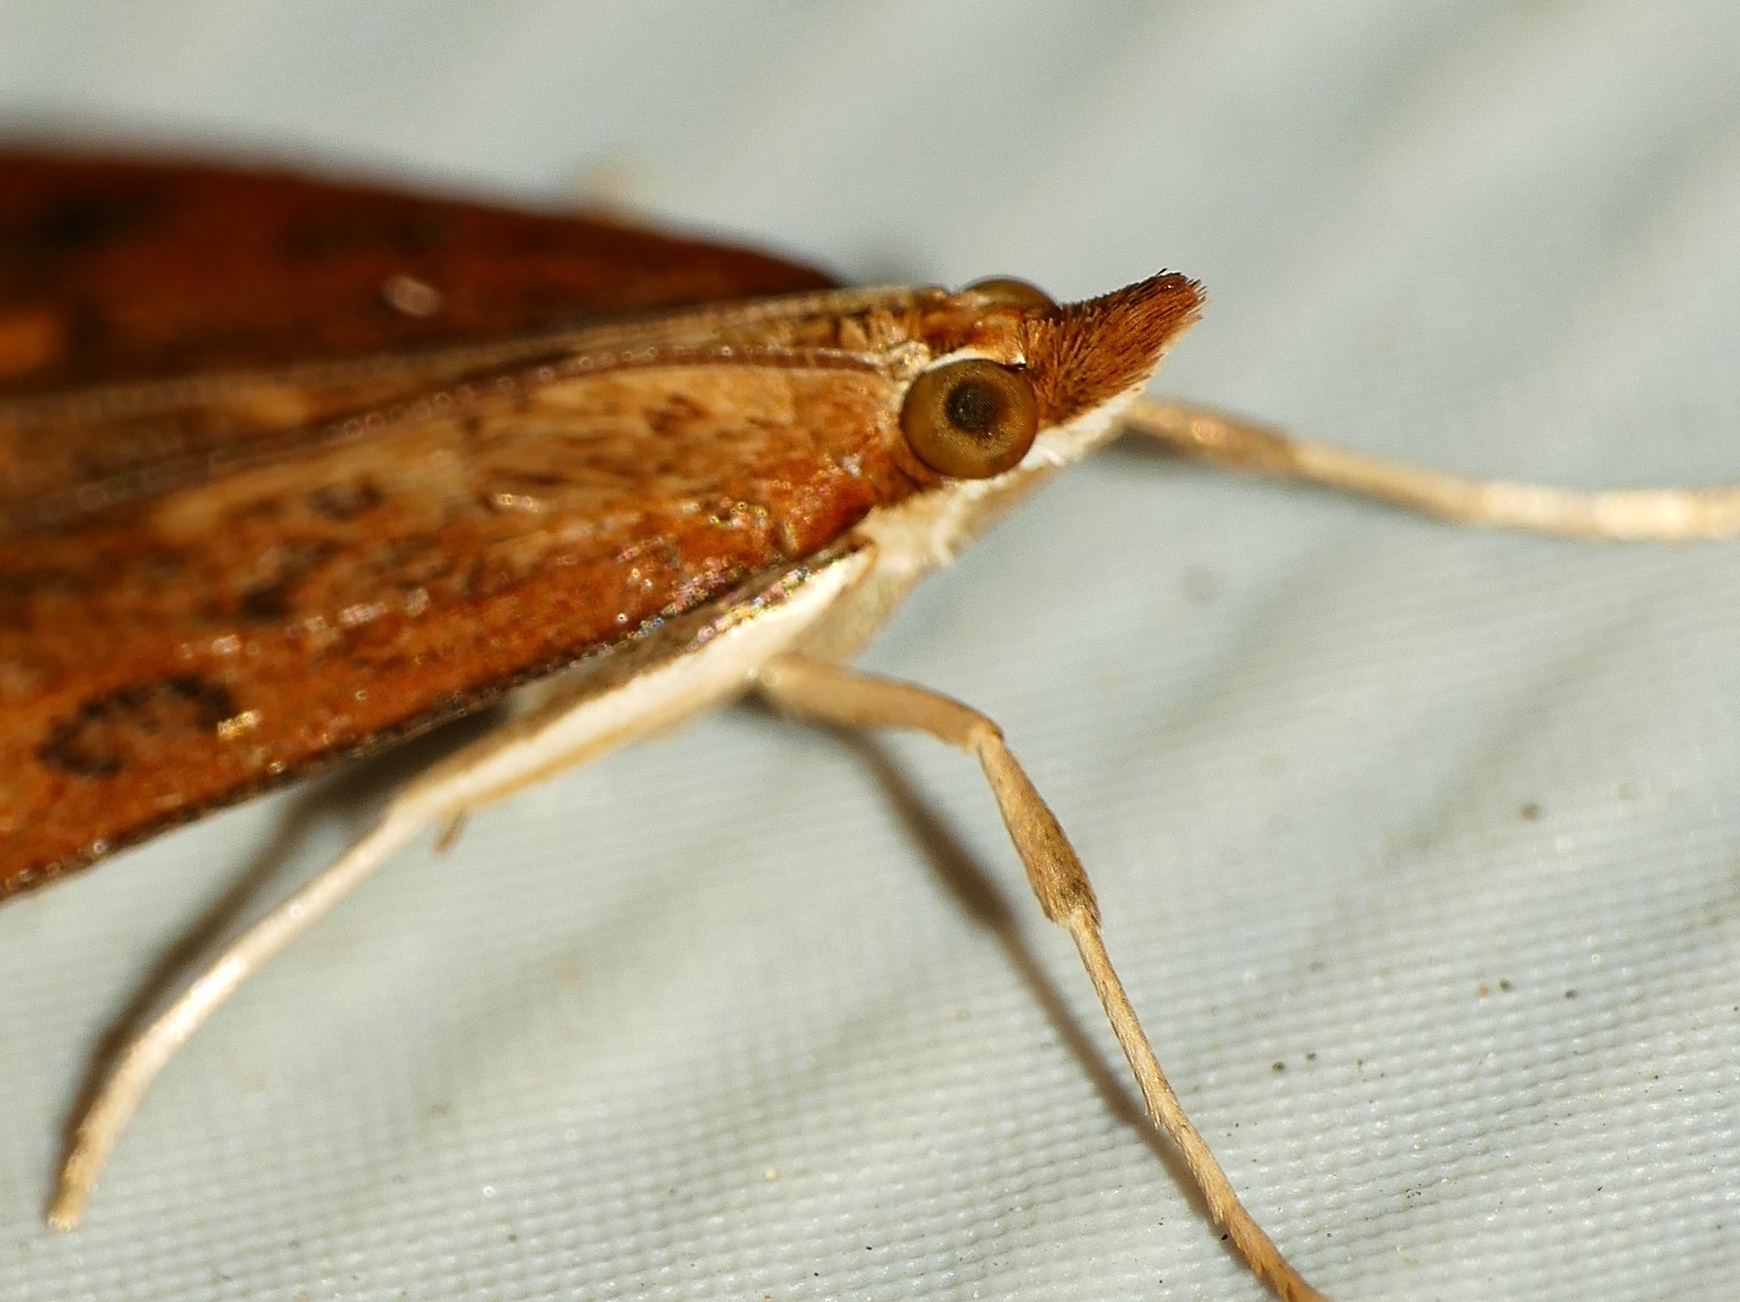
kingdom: Animalia
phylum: Arthropoda
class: Insecta
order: Lepidoptera
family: Crambidae
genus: Udea
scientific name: Udea ferrugalis
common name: Rusty dot
